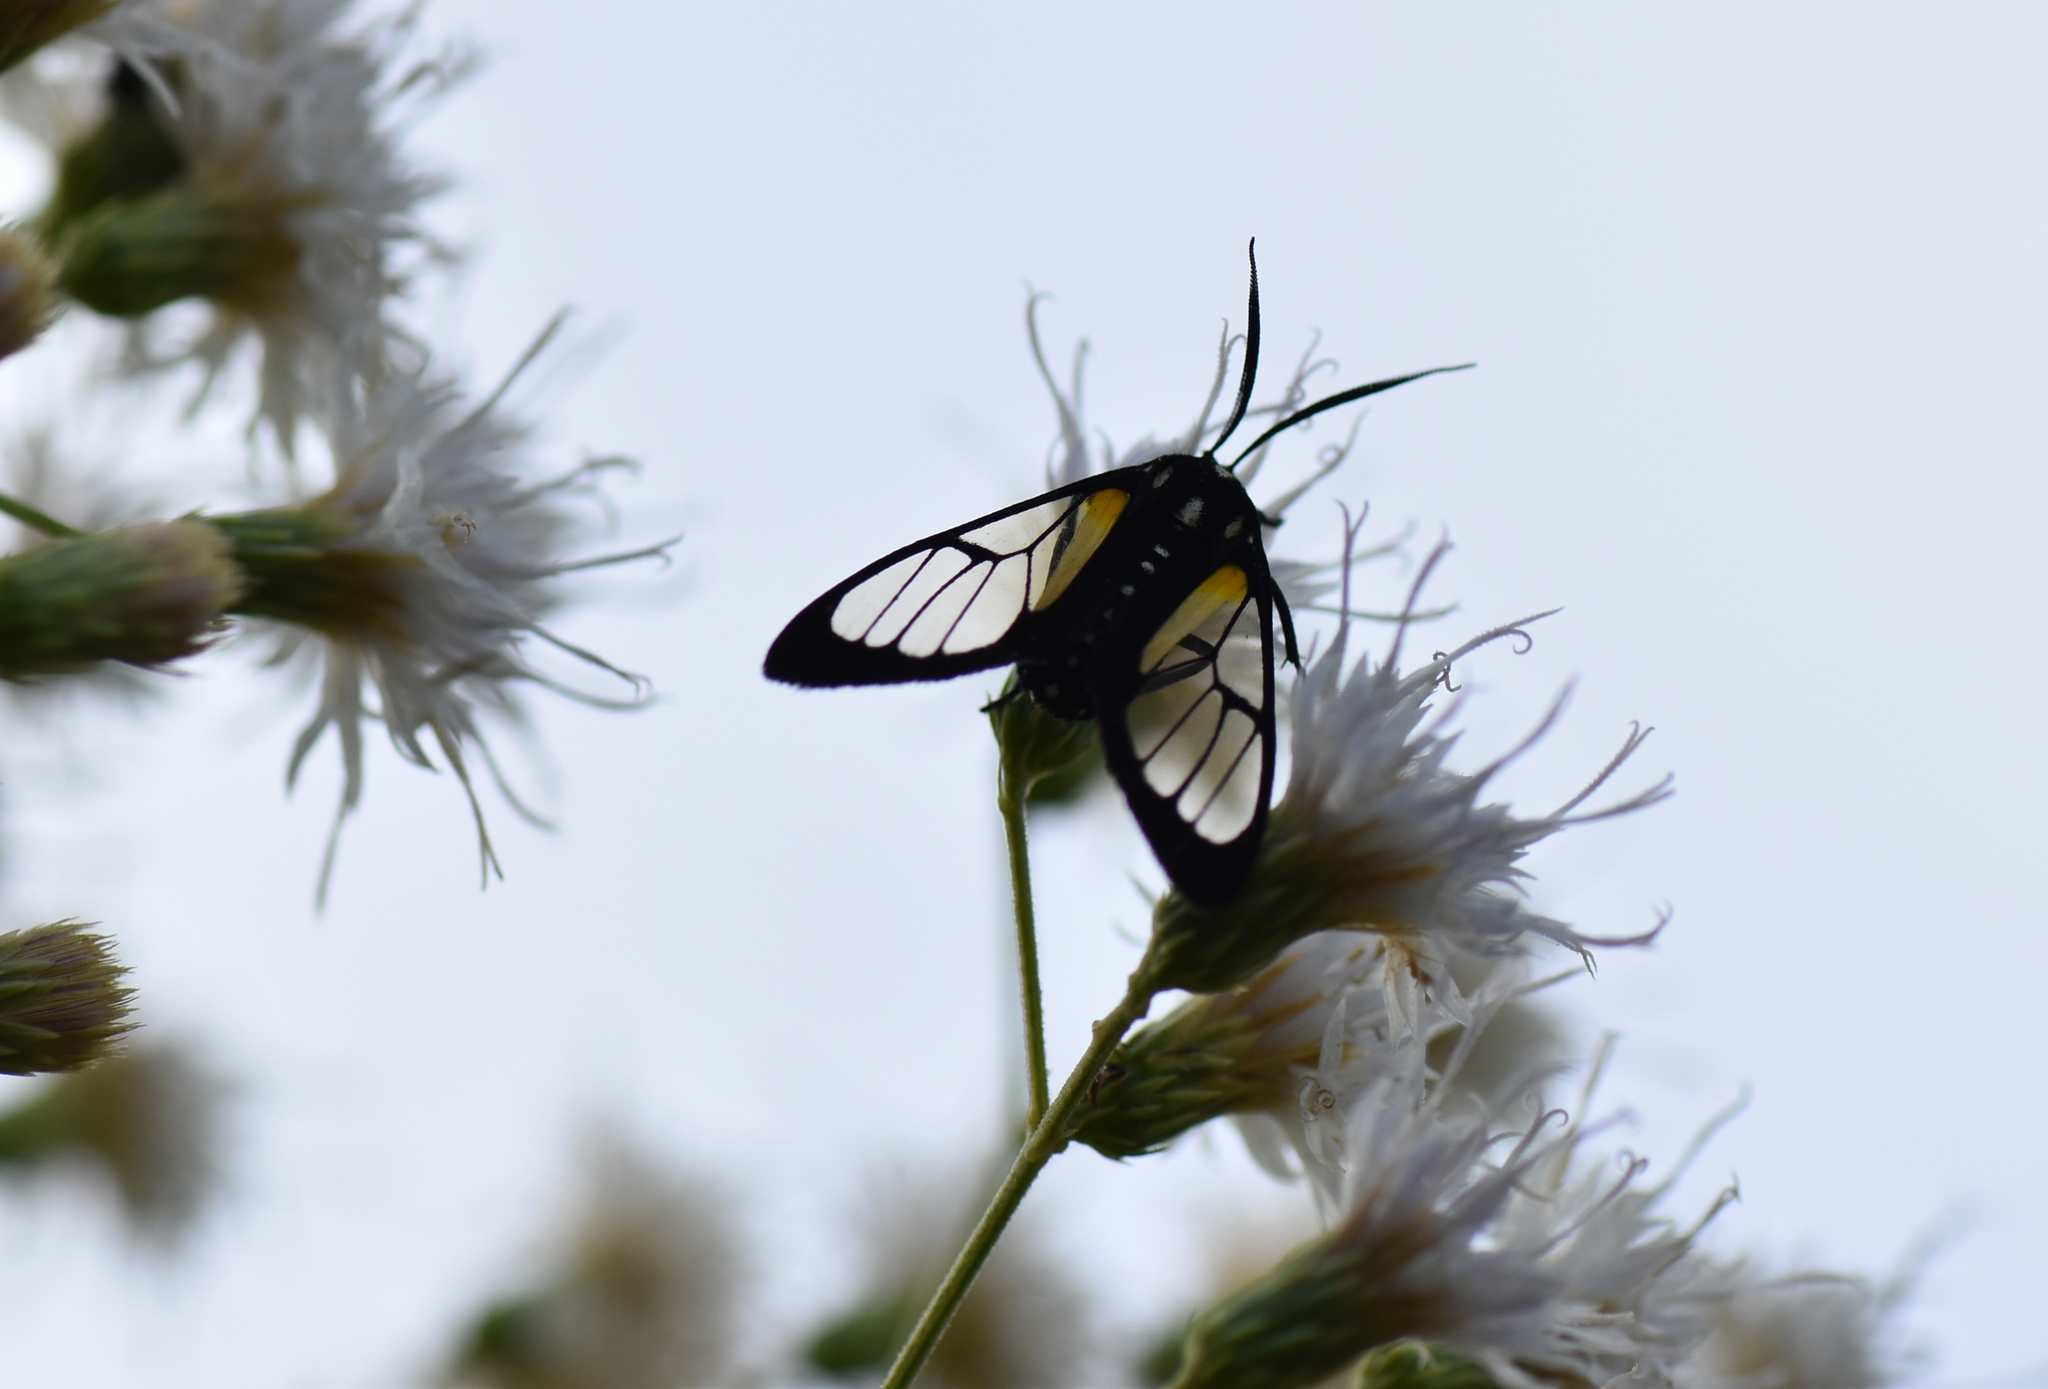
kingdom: Animalia
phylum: Arthropoda
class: Insecta
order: Lepidoptera
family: Erebidae
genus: Paraethria
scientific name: Paraethria triseriata
